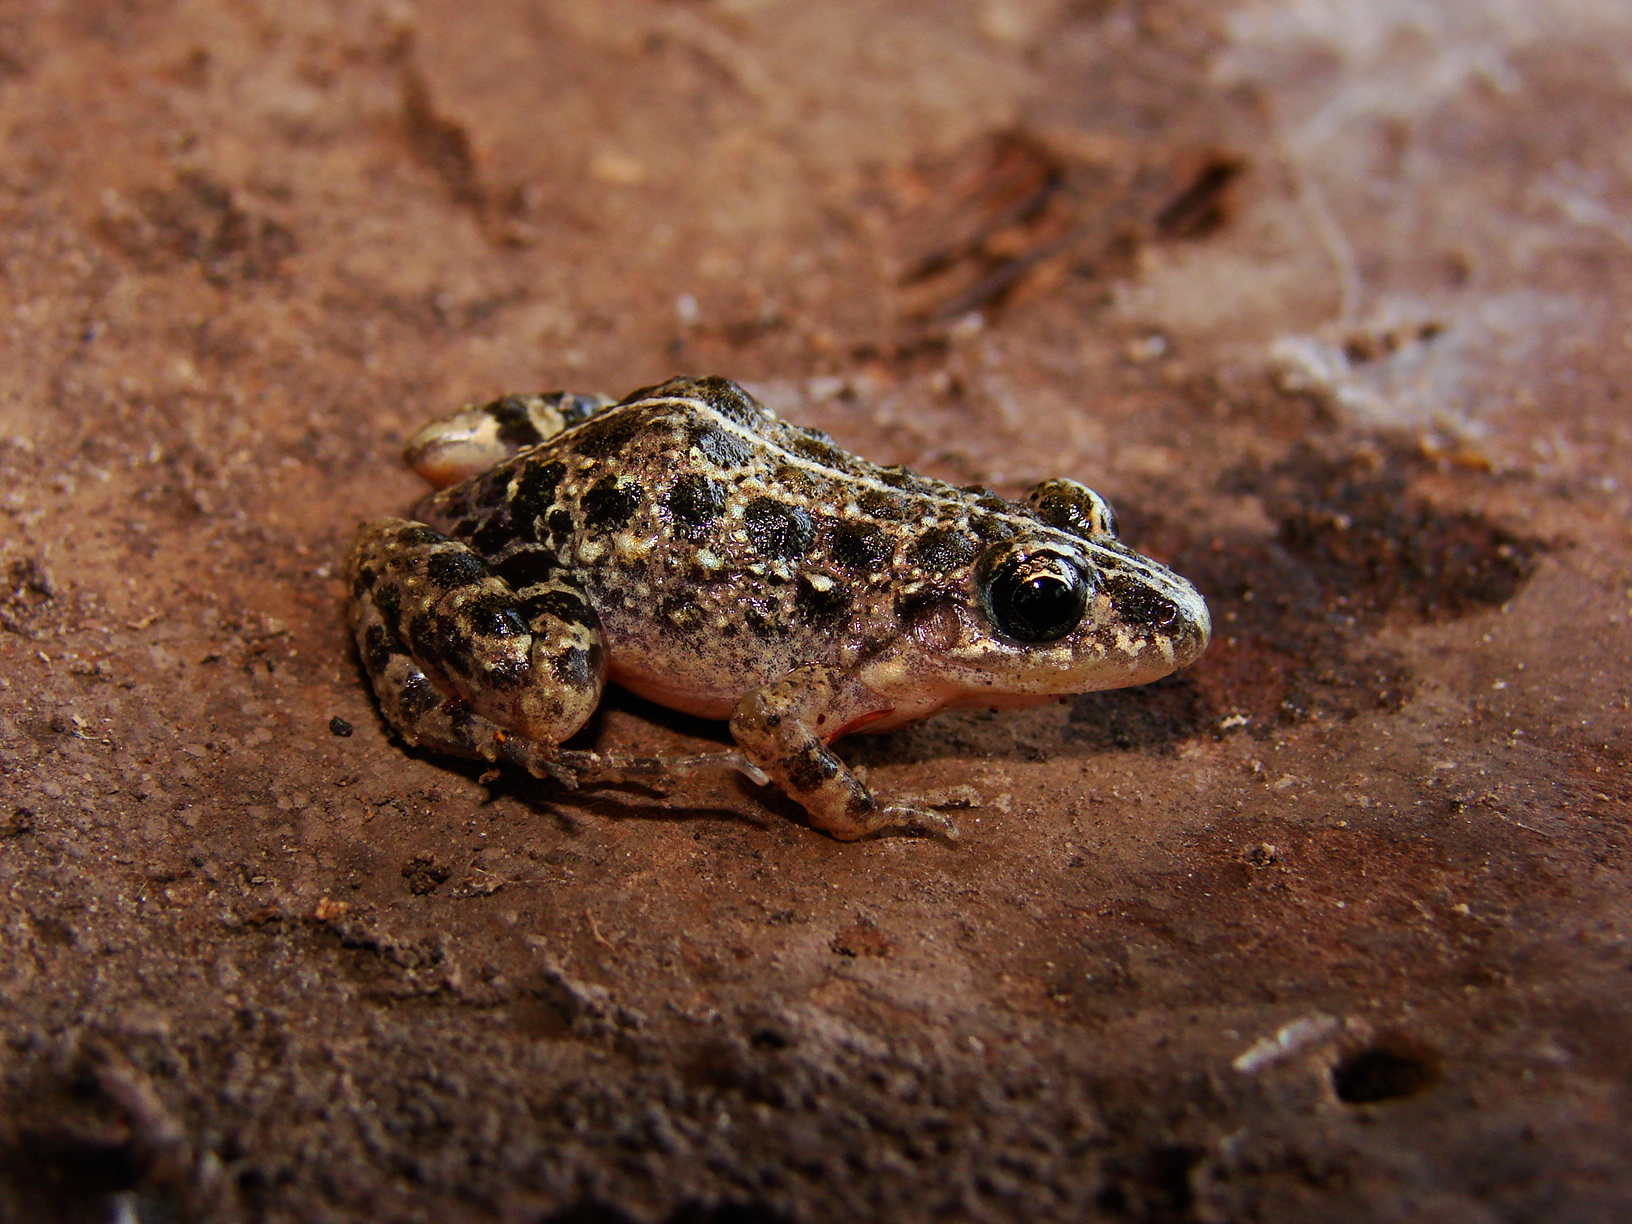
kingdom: Animalia
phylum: Chordata
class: Amphibia
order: Anura
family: Leptodactylidae
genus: Adenomera
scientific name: Adenomera saci
